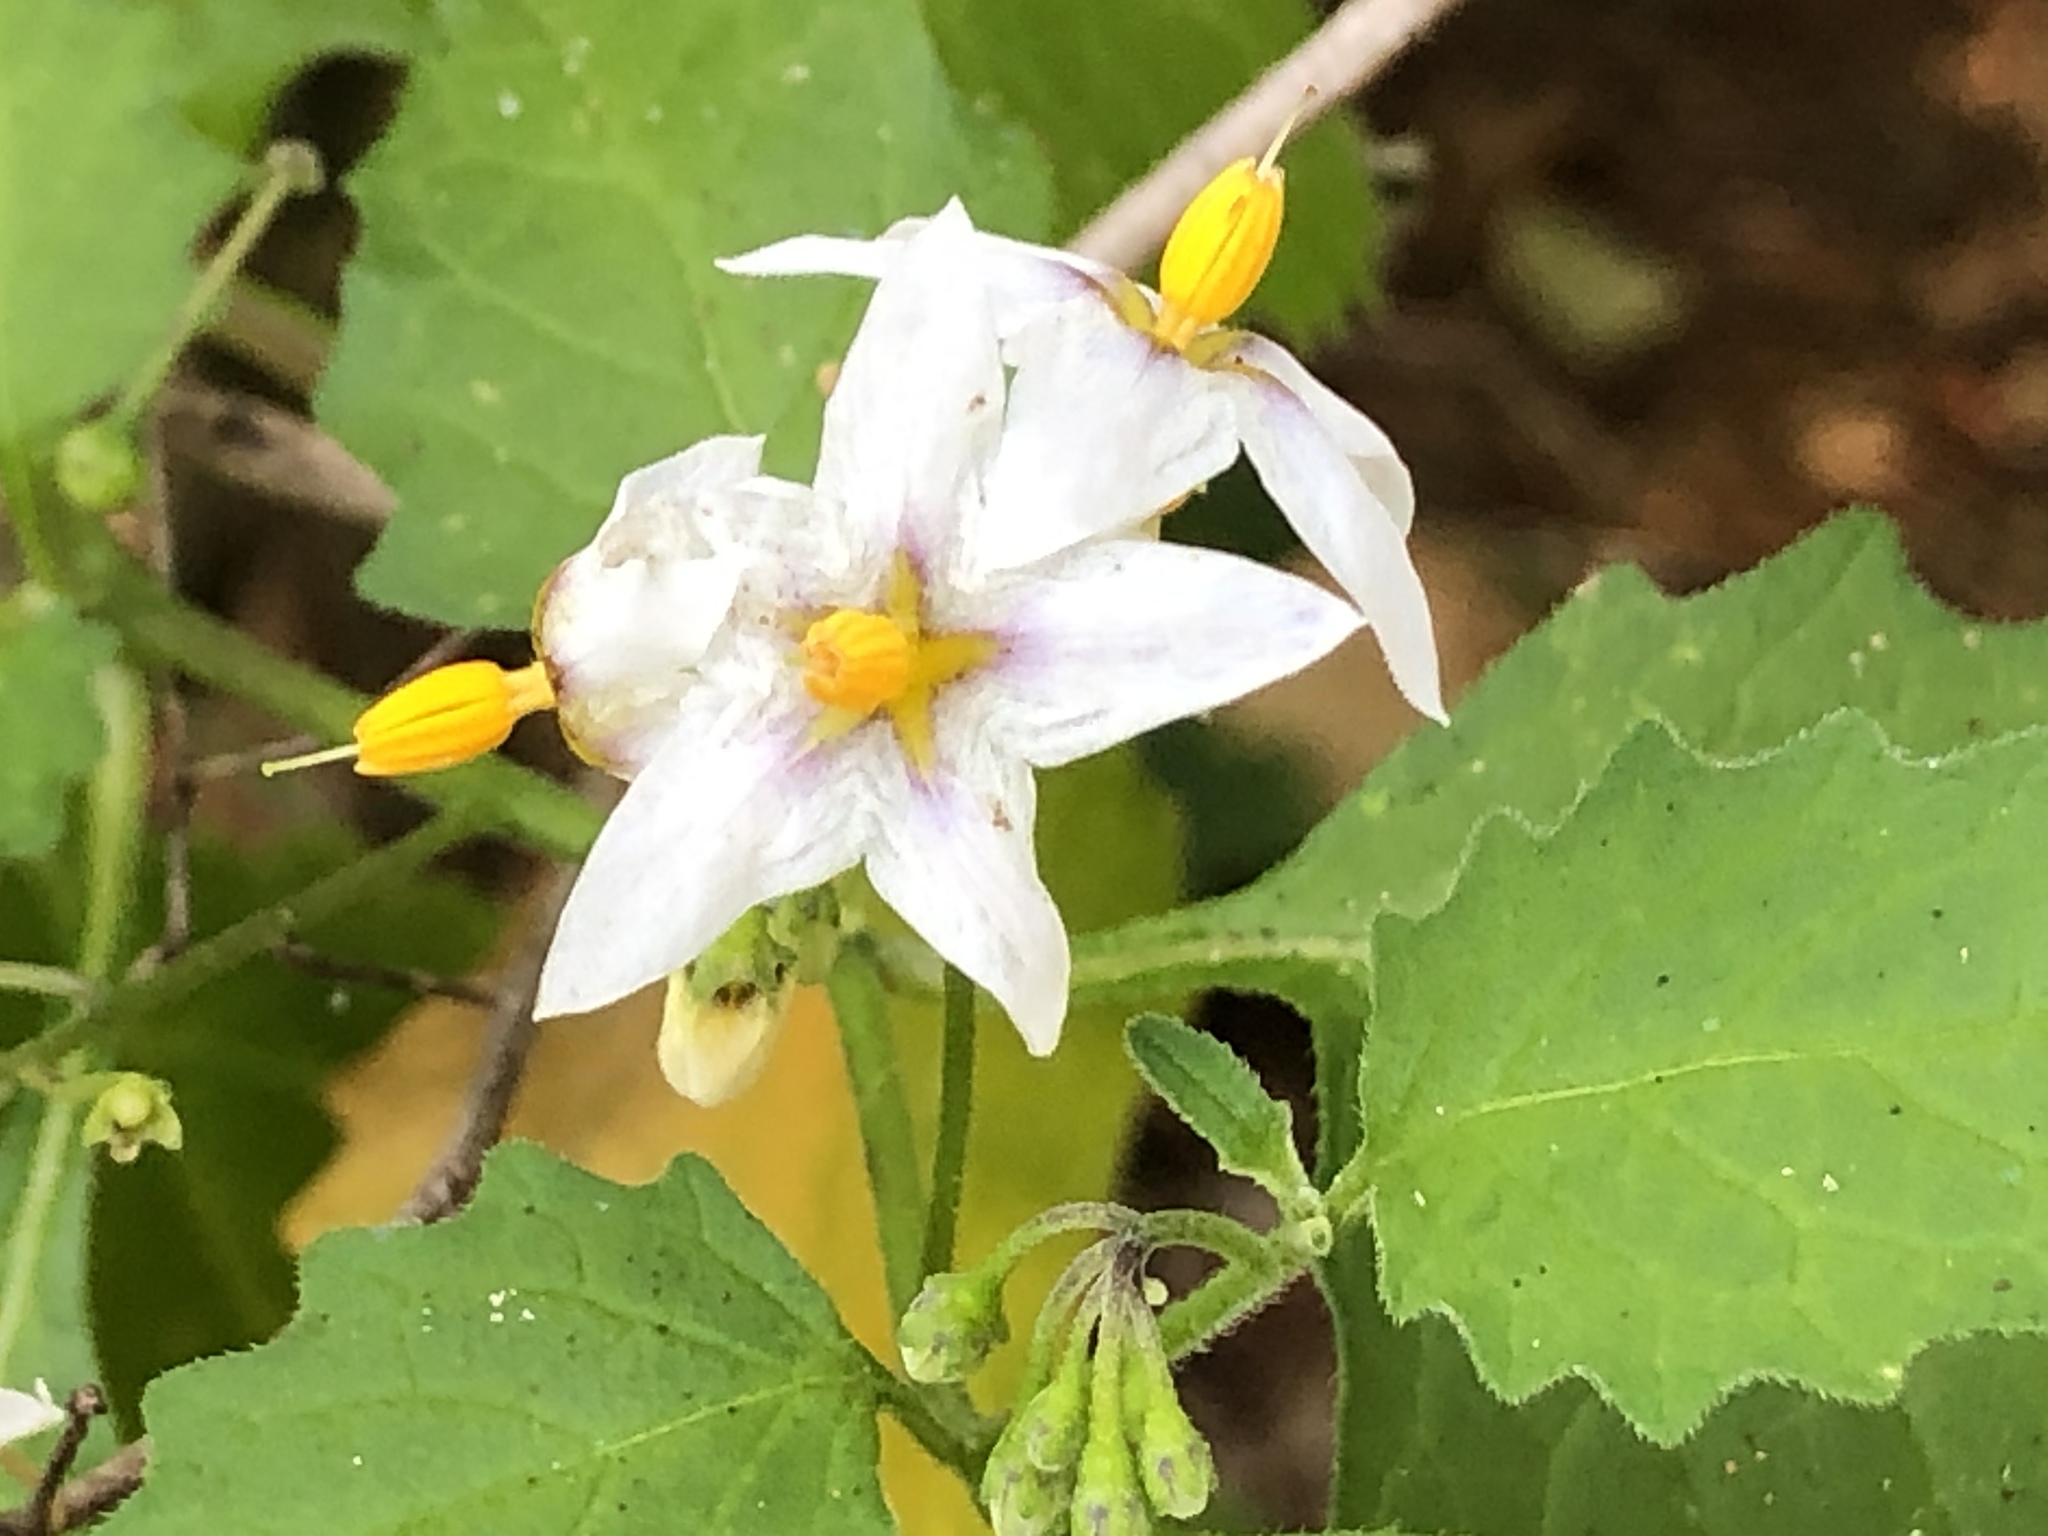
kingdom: Plantae
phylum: Tracheophyta
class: Magnoliopsida
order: Solanales
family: Solanaceae
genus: Solanum
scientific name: Solanum douglasii
